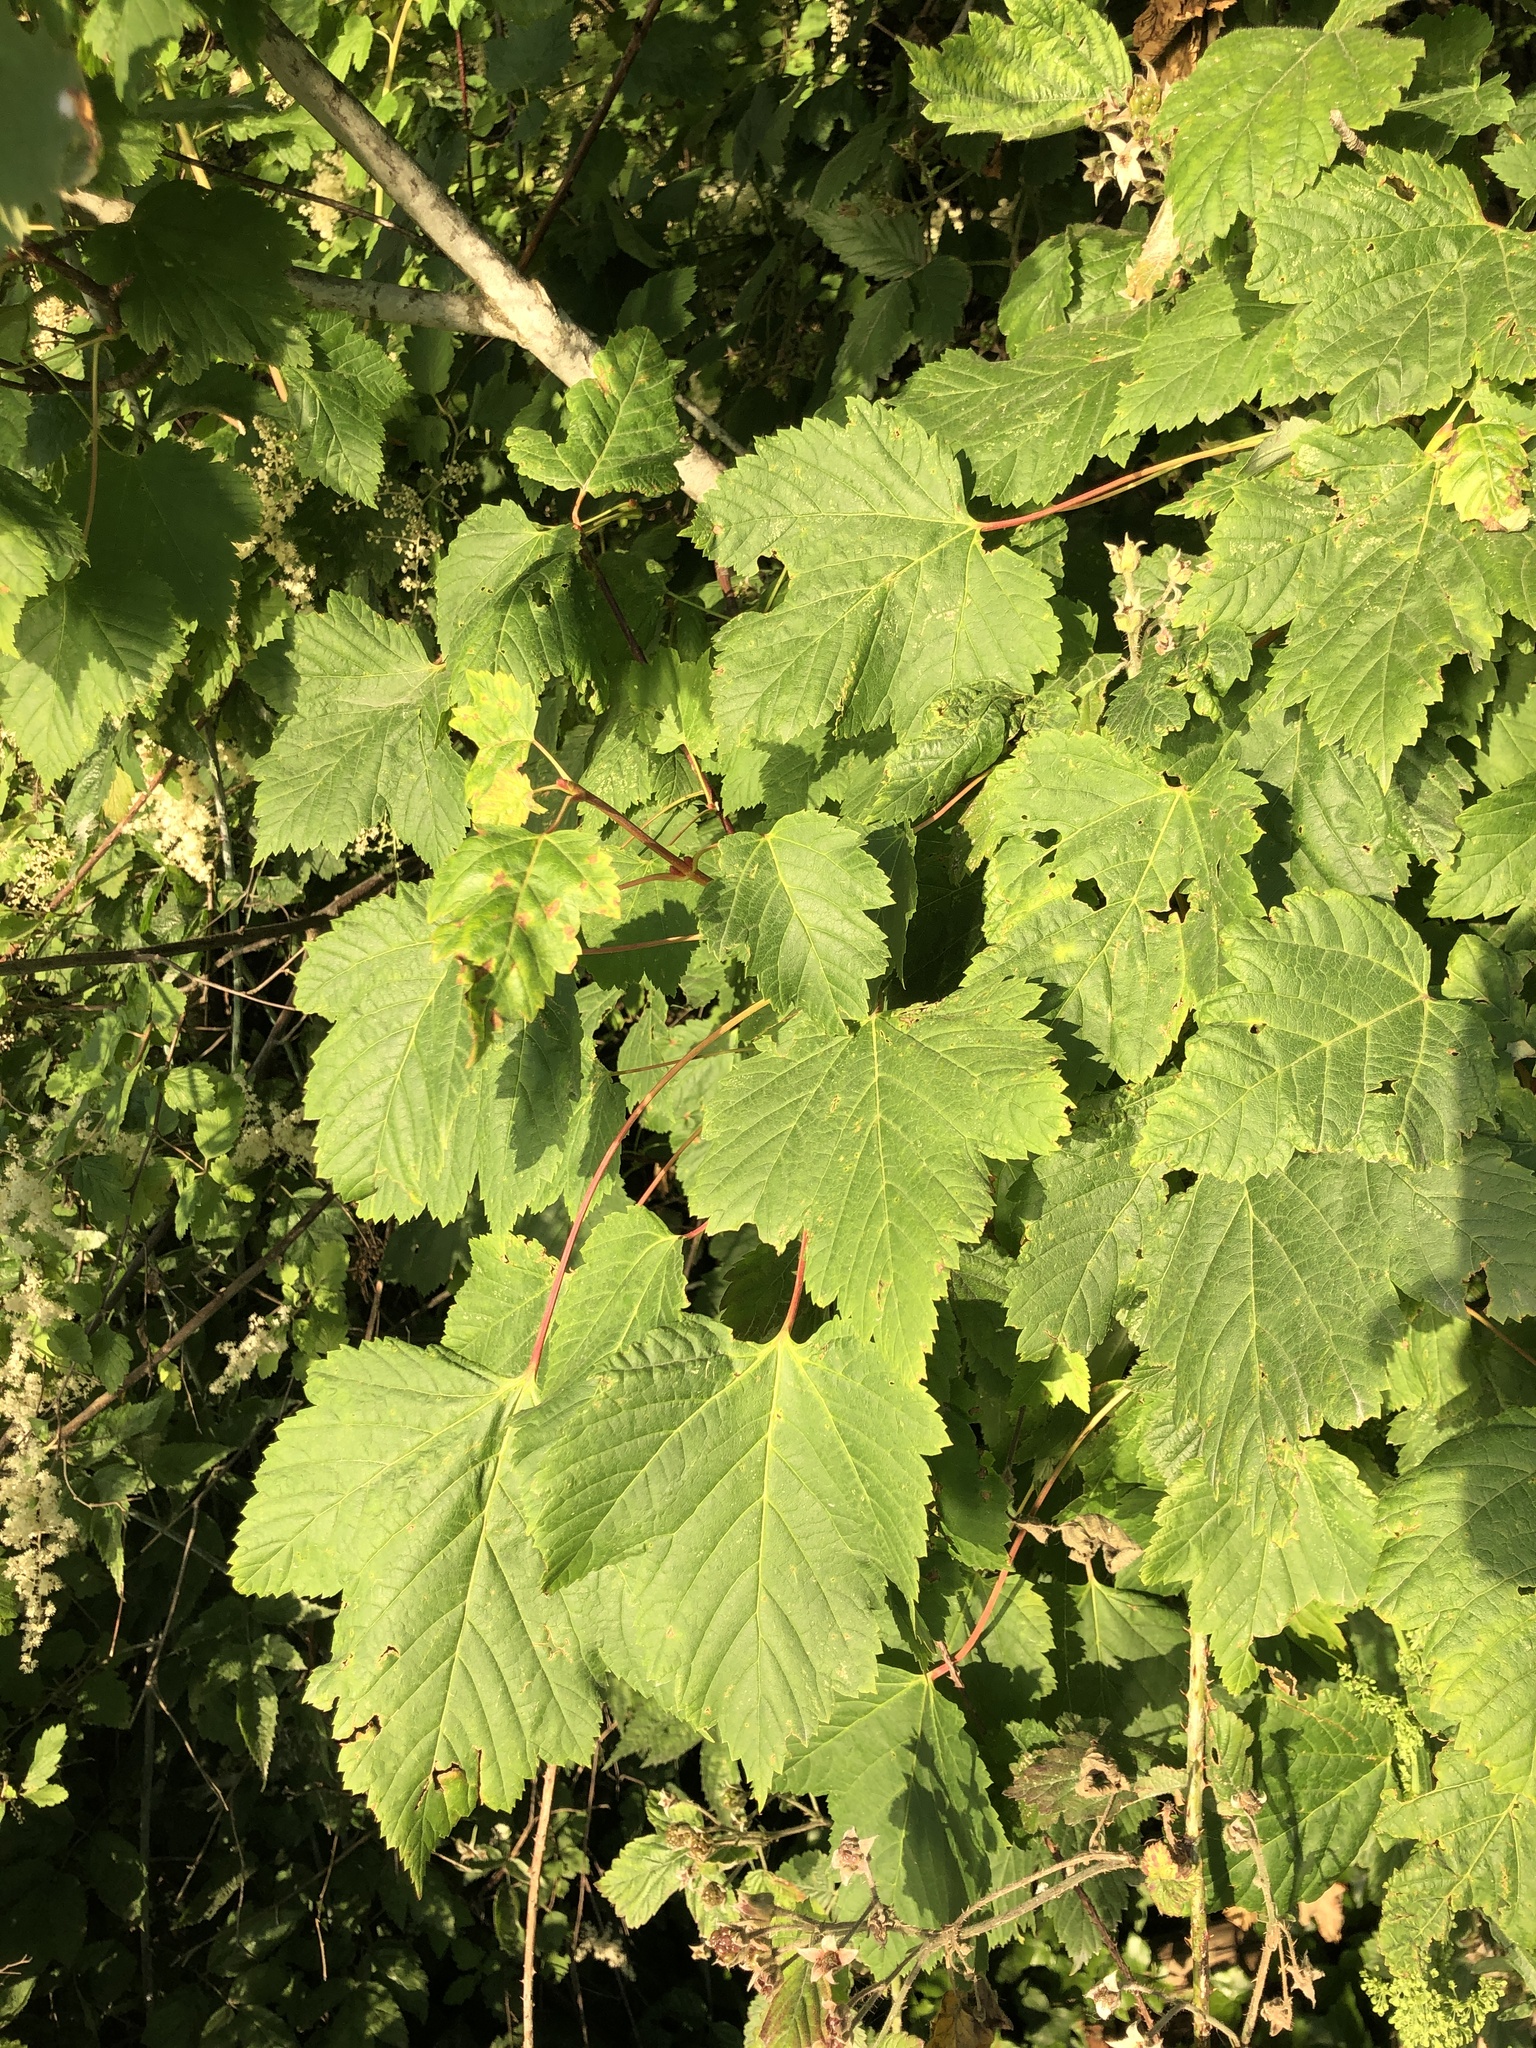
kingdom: Plantae
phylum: Tracheophyta
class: Magnoliopsida
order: Sapindales
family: Sapindaceae
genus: Acer
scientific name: Acer glabrum
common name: Rocky mountain maple
